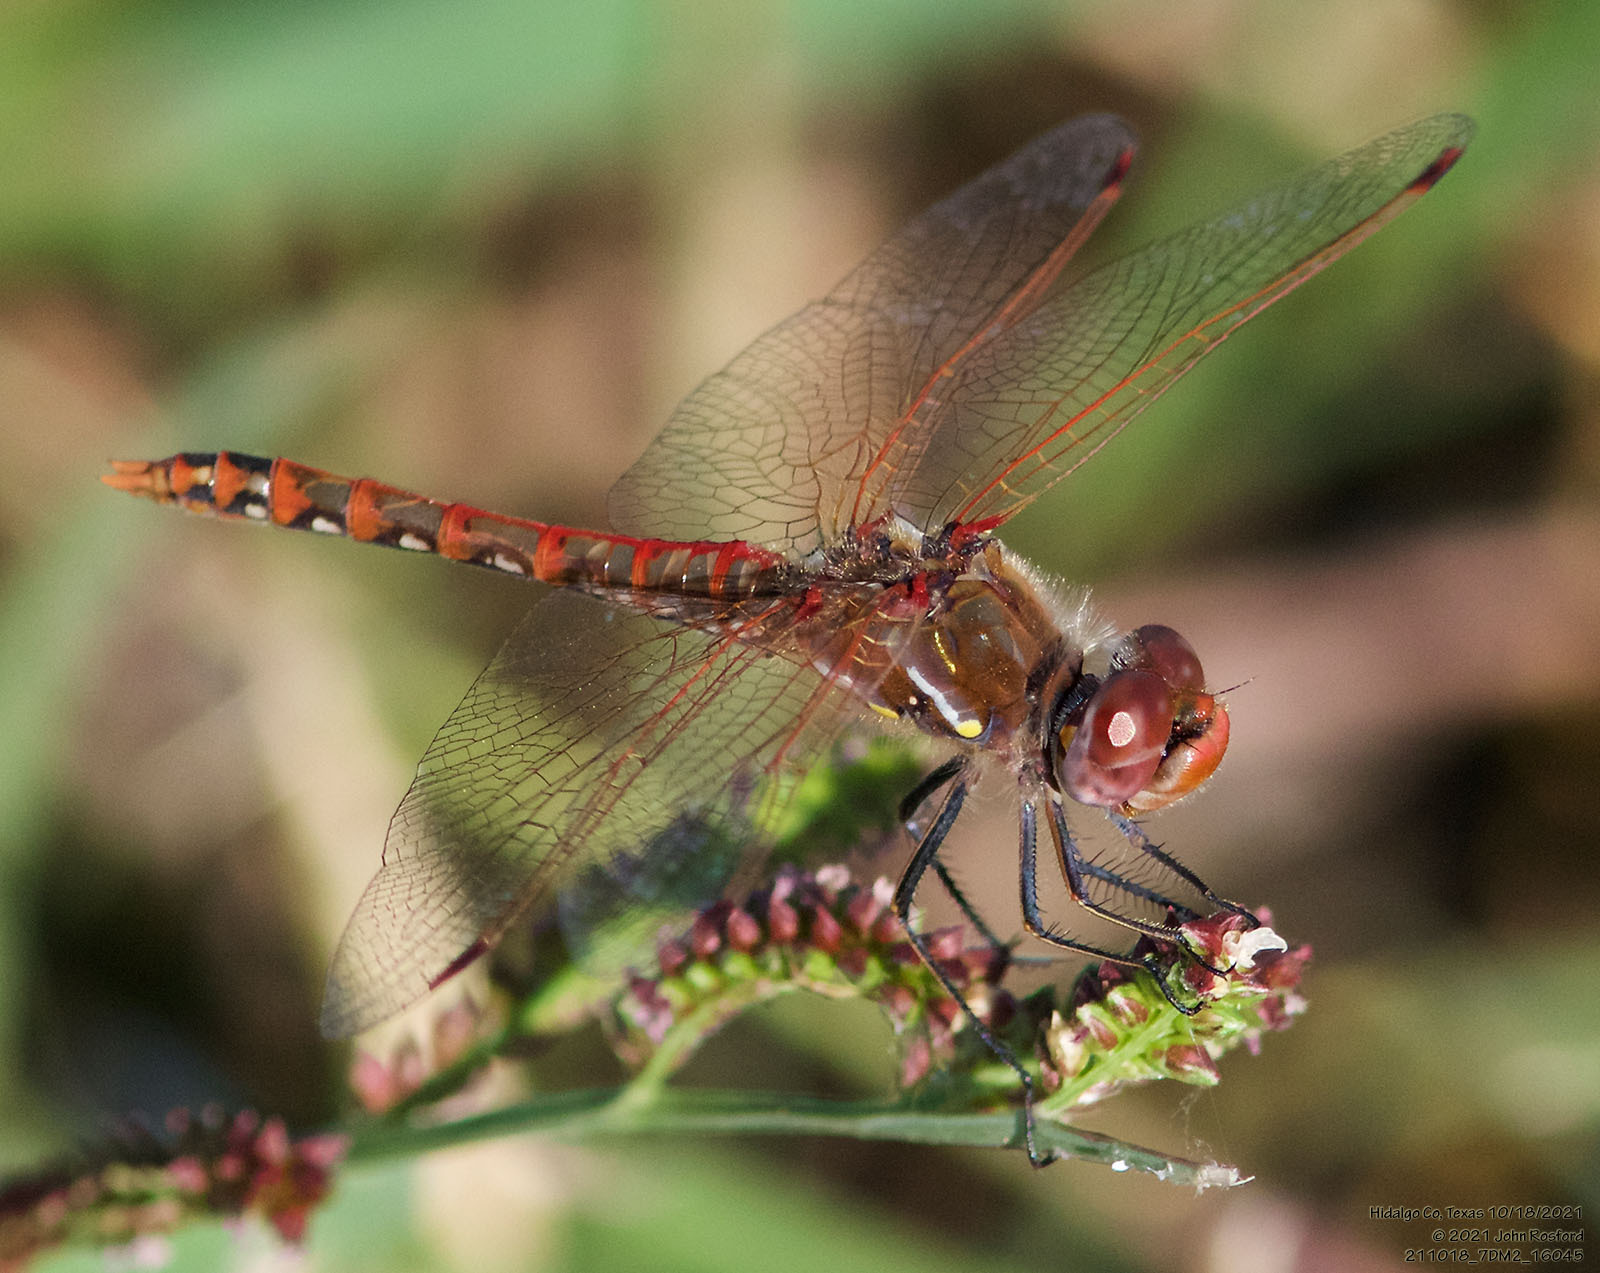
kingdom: Animalia
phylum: Arthropoda
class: Insecta
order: Odonata
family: Libellulidae
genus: Sympetrum
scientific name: Sympetrum corruptum
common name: Variegated meadowhawk
